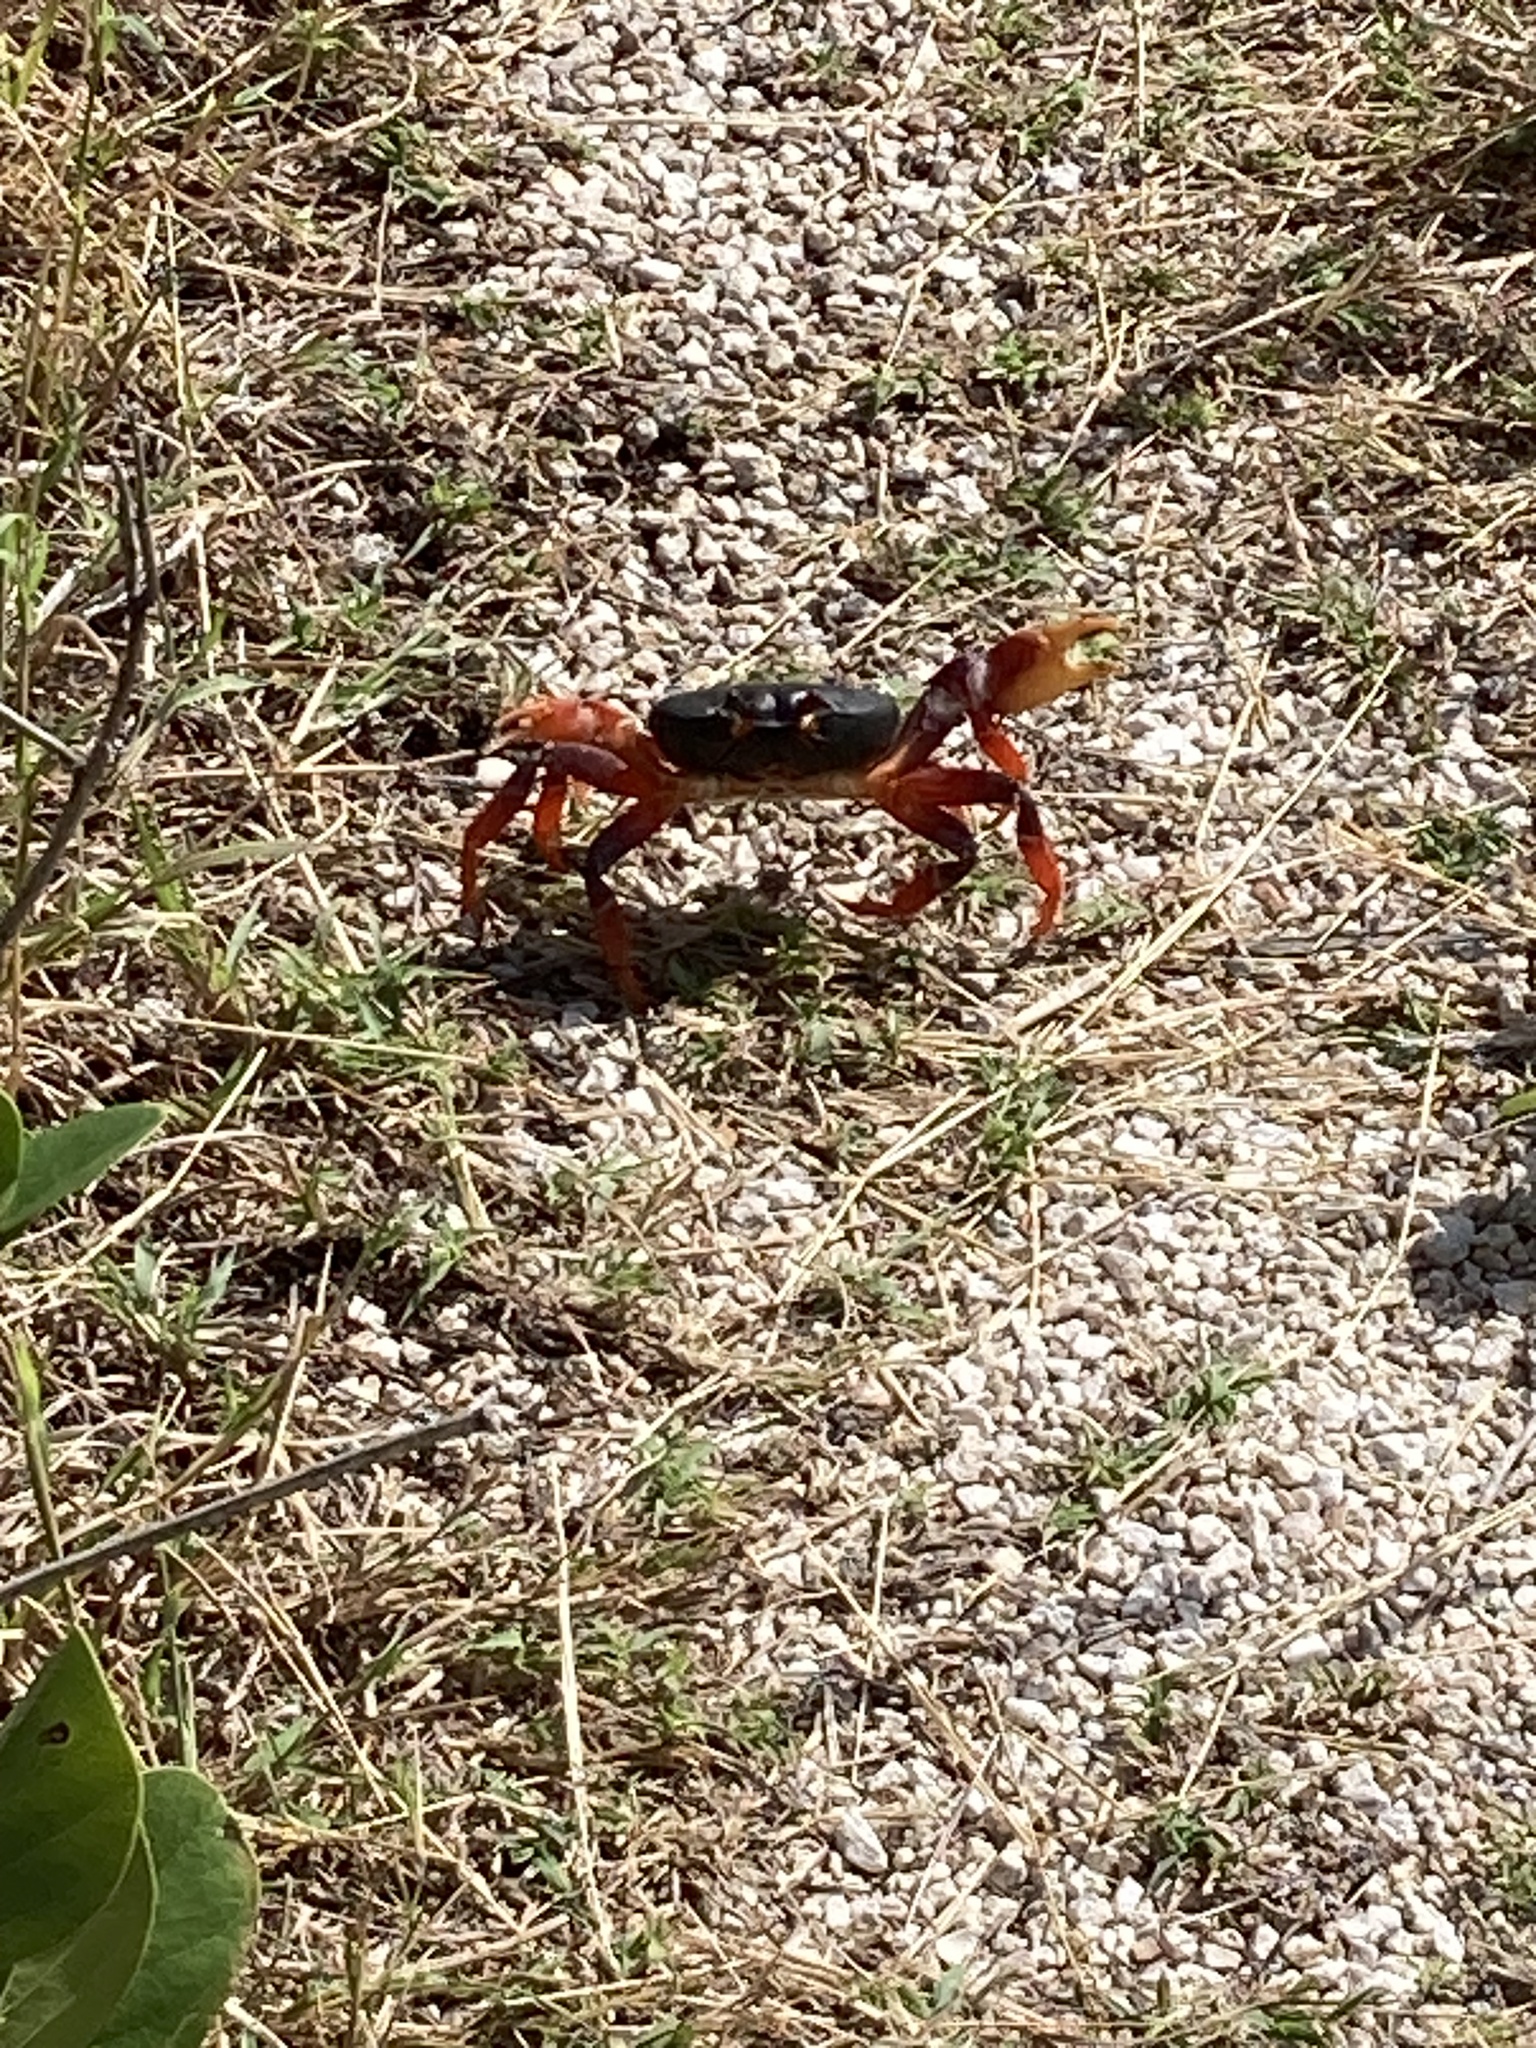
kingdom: Animalia
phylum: Arthropoda
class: Malacostraca
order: Decapoda
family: Gecarcinidae
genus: Gecarcinus
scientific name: Gecarcinus ruricola
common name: Black land crab
